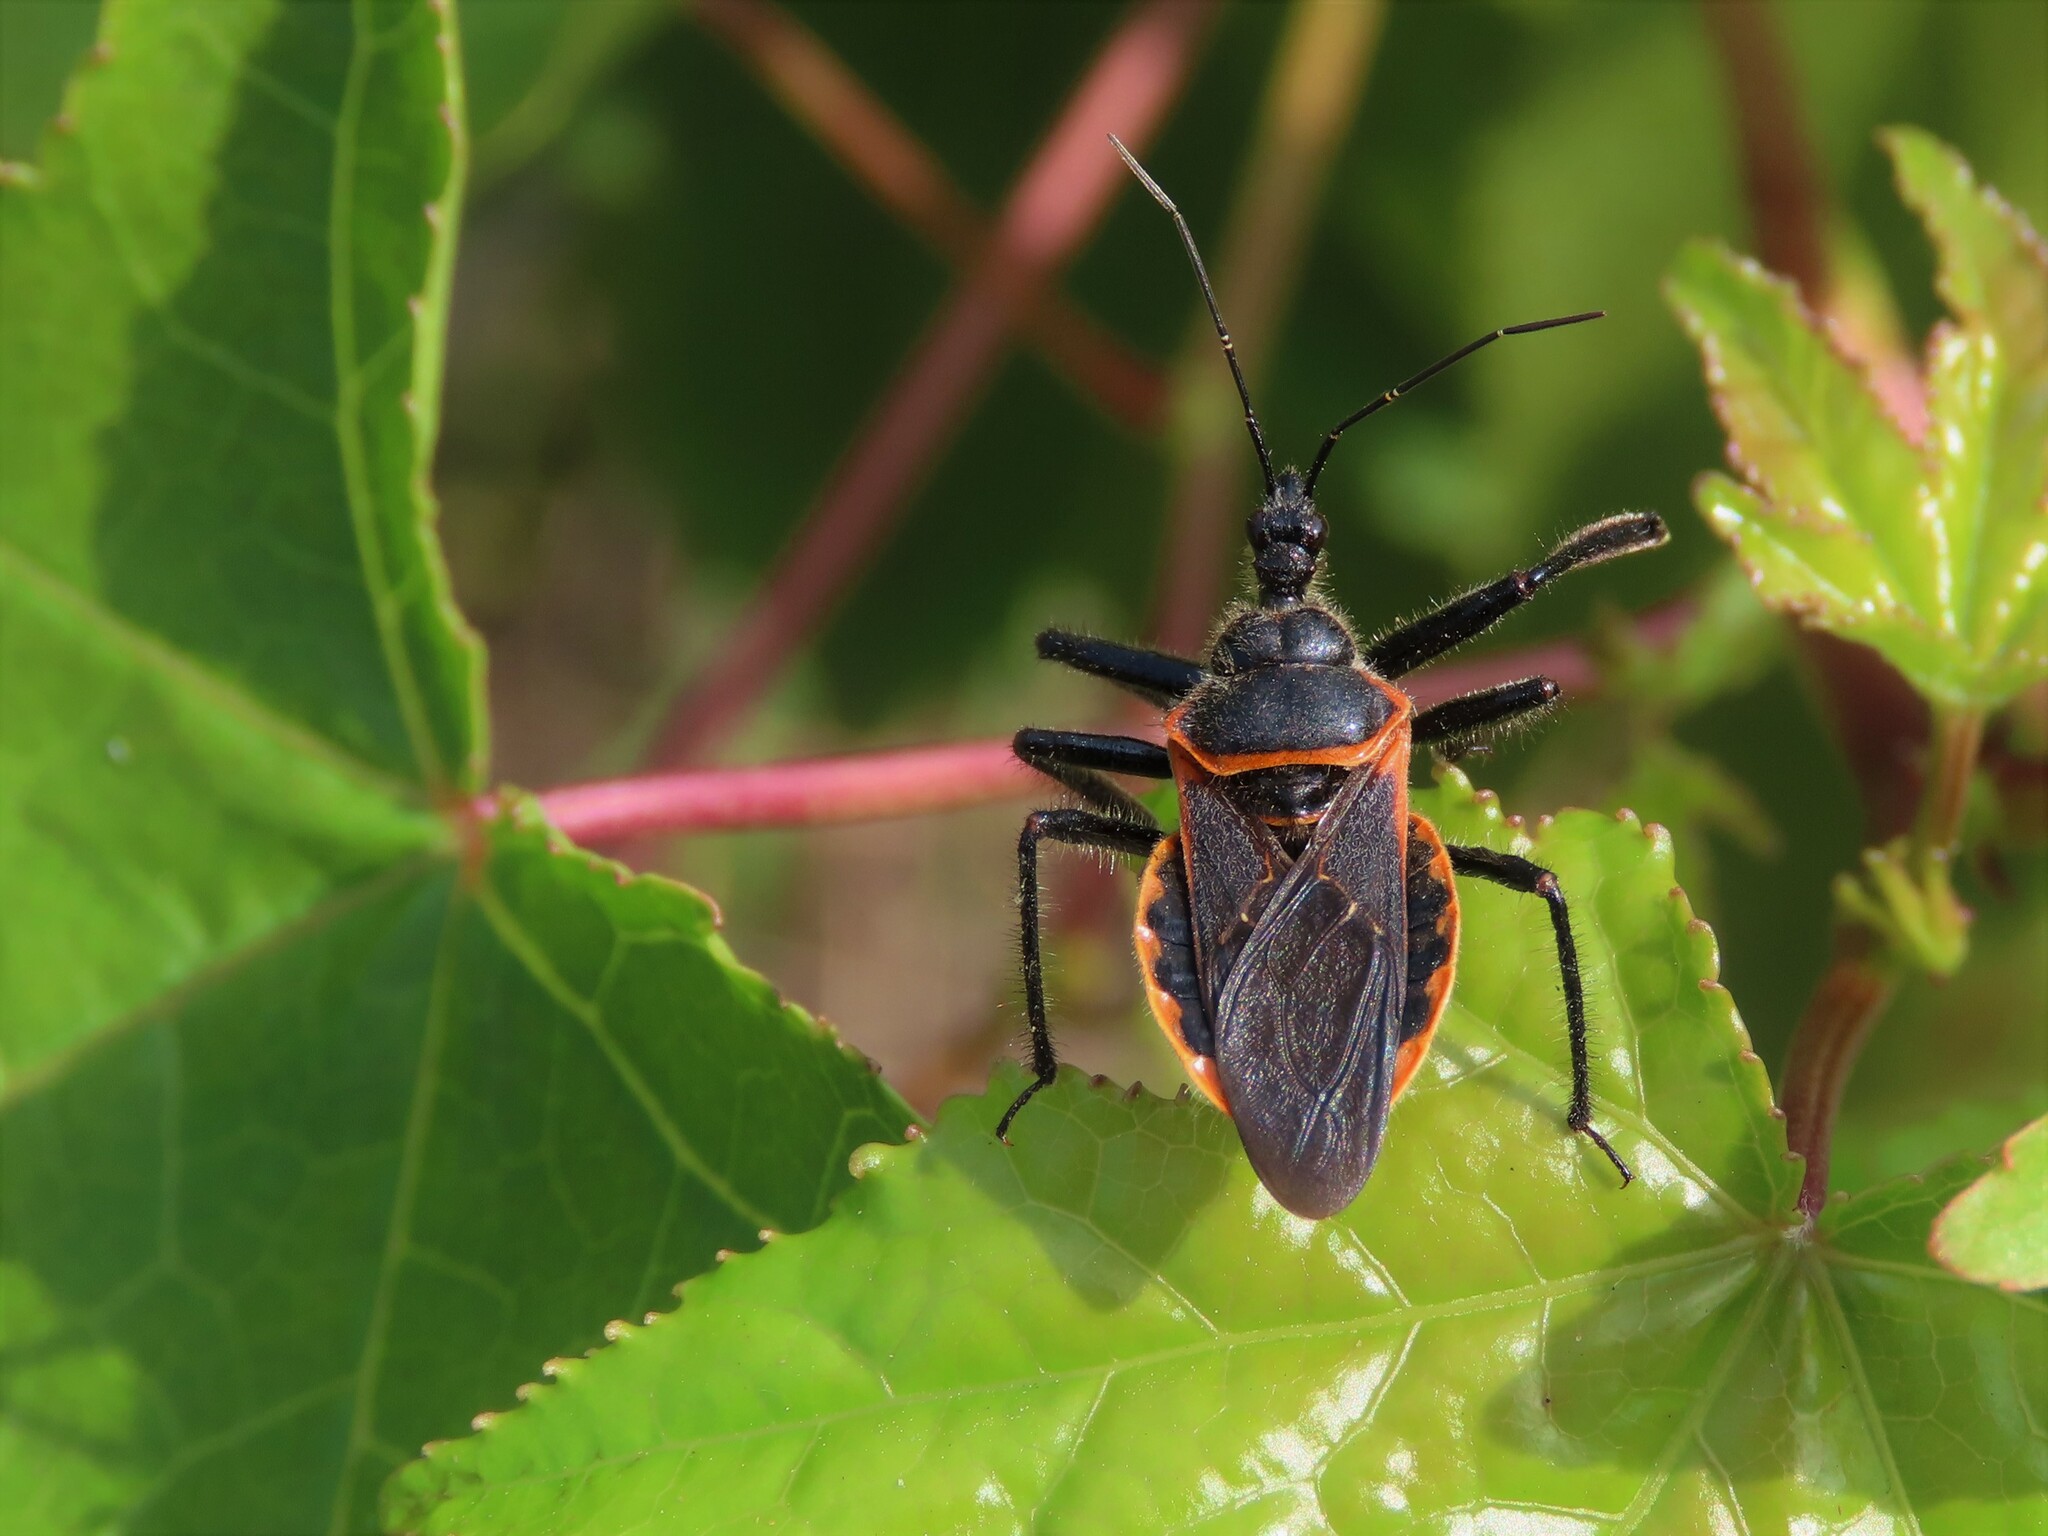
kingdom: Animalia
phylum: Arthropoda
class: Insecta
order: Hemiptera
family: Reduviidae
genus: Apiomerus
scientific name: Apiomerus crassipes
